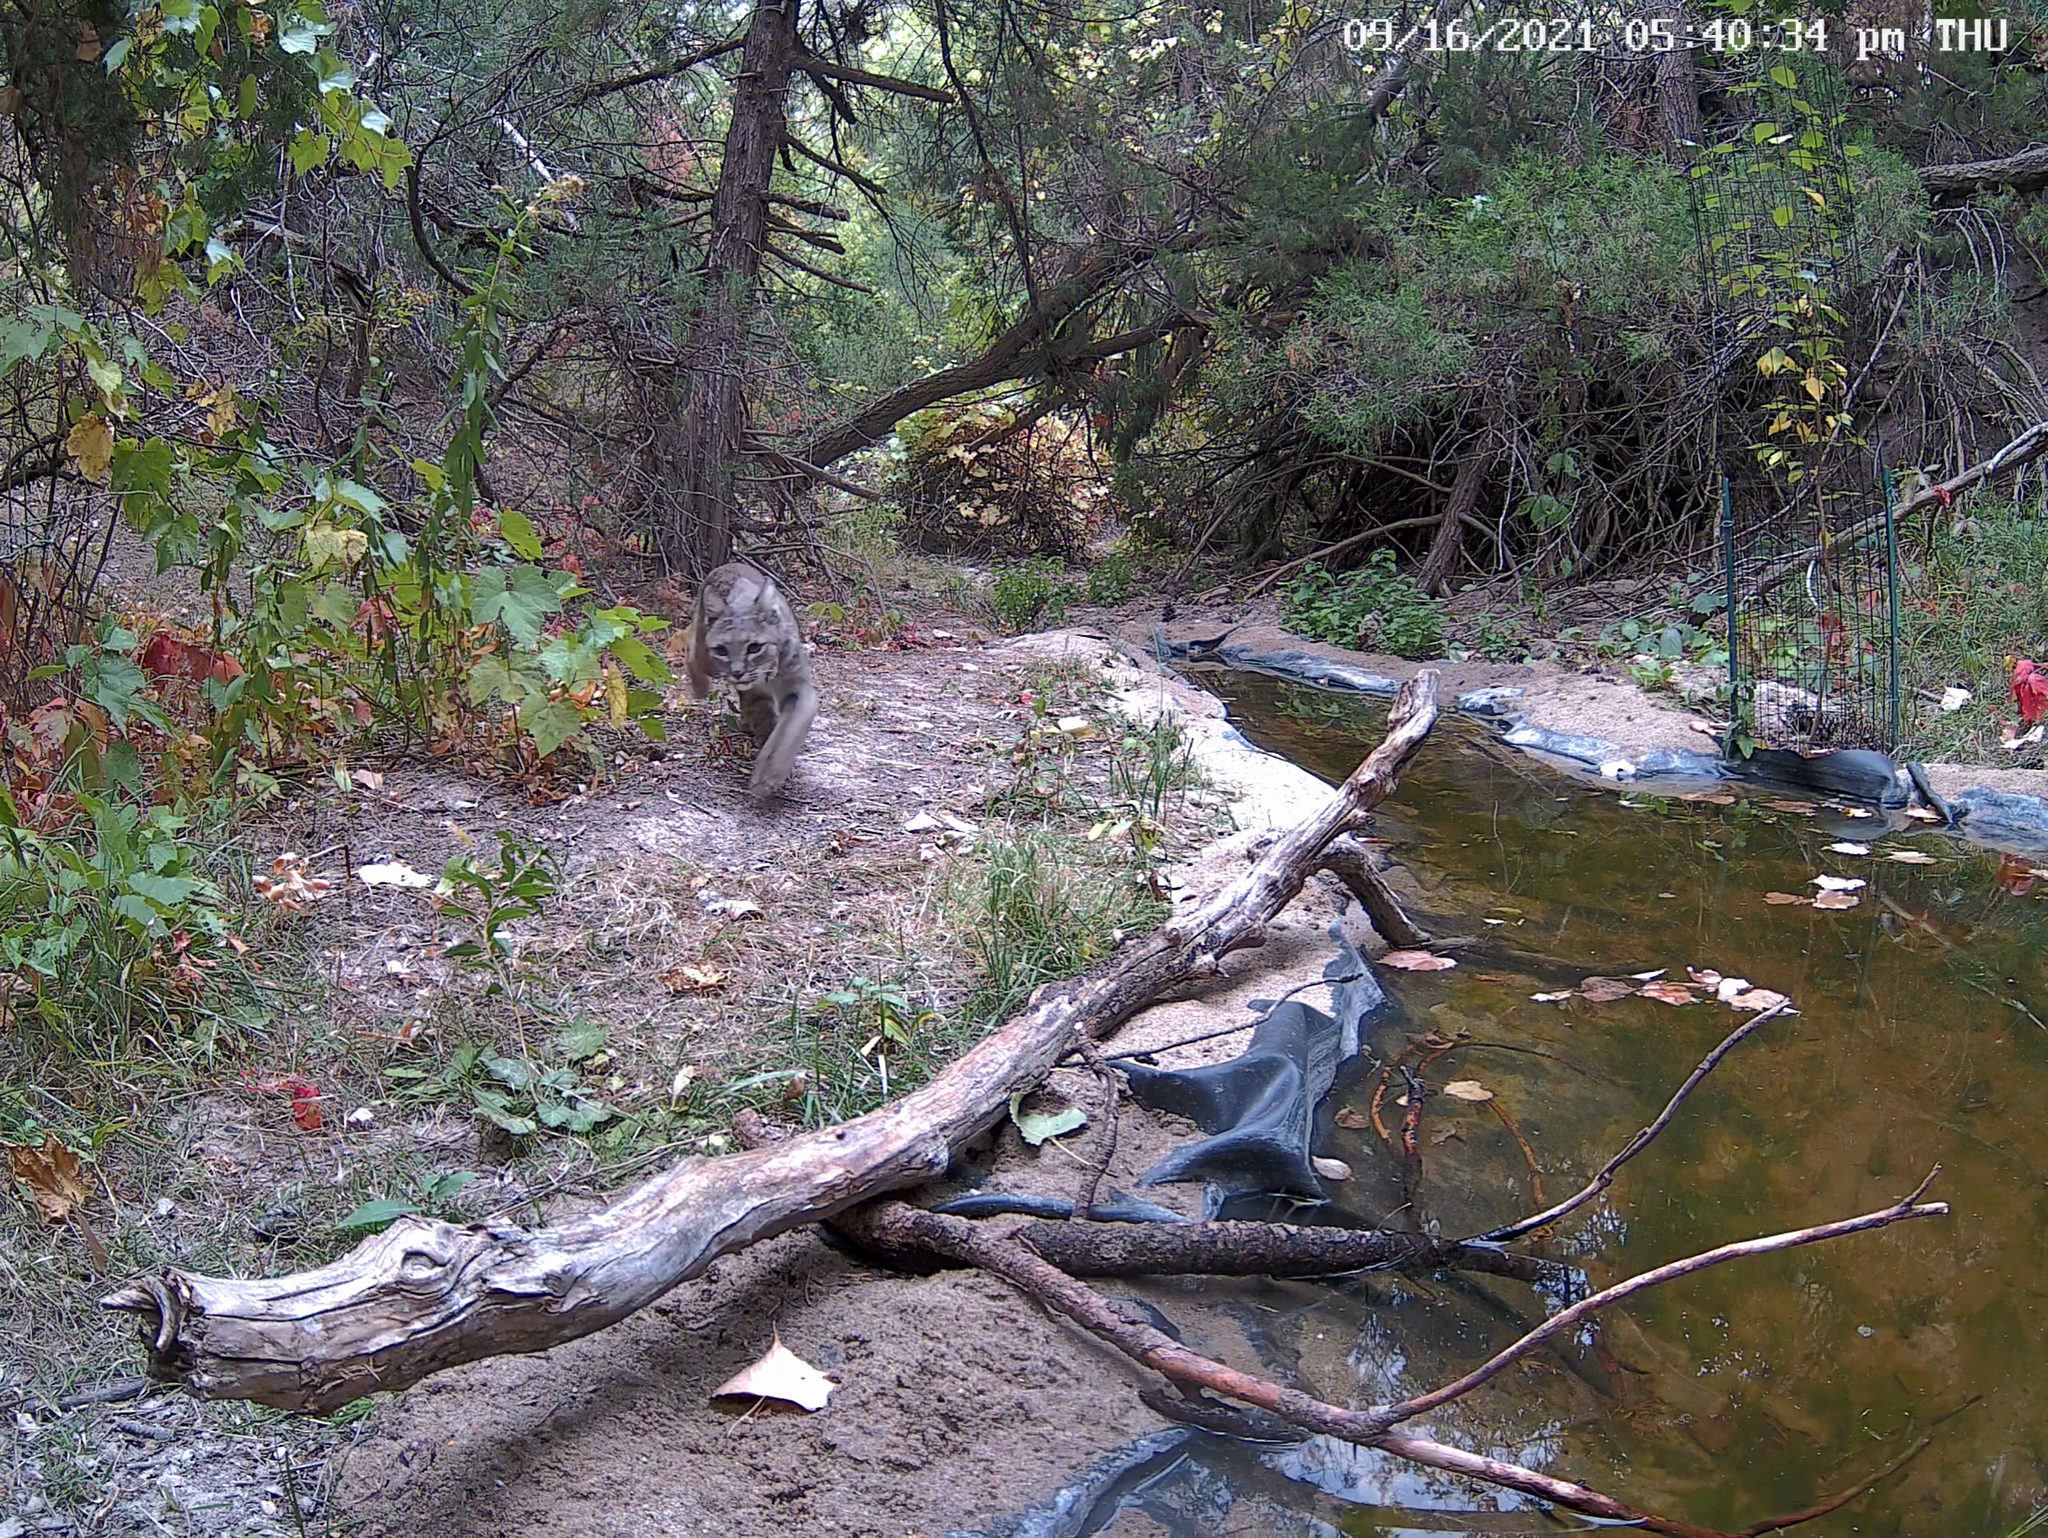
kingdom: Animalia
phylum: Chordata
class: Mammalia
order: Carnivora
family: Felidae
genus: Lynx
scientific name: Lynx rufus
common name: Bobcat
